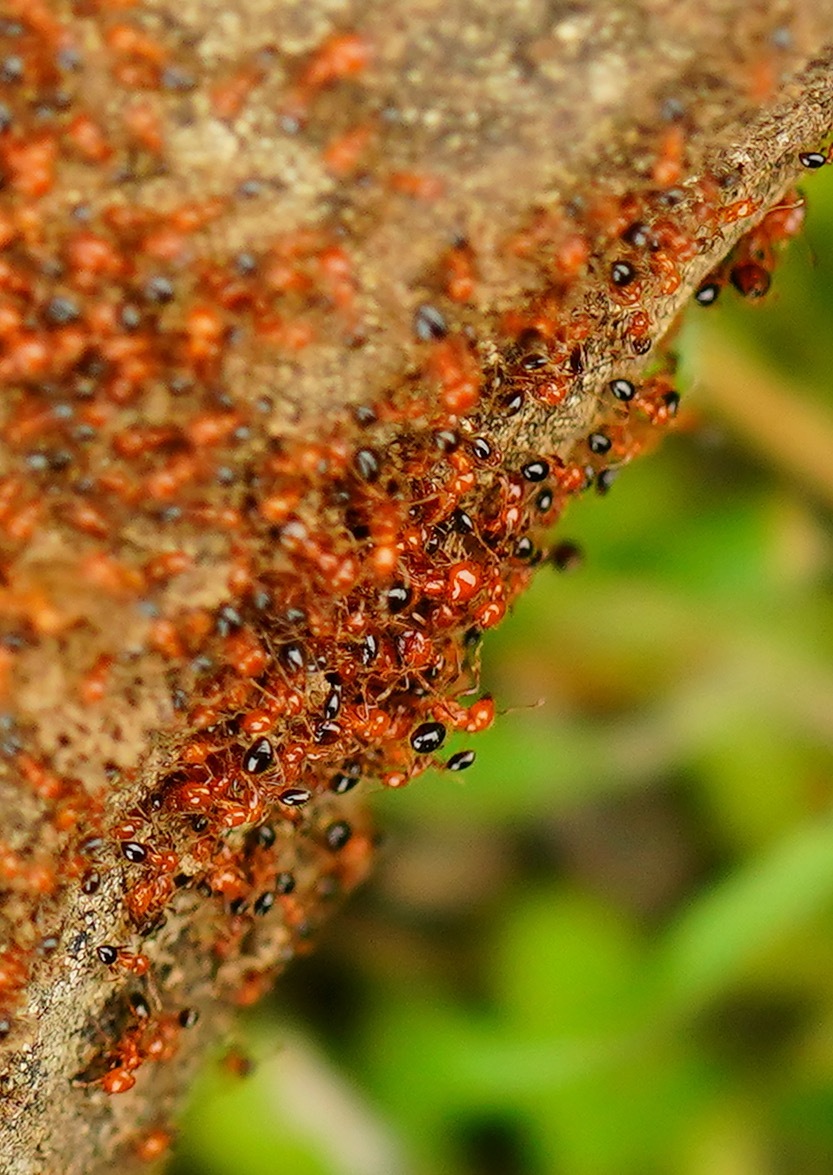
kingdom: Animalia
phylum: Arthropoda
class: Insecta
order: Hymenoptera
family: Formicidae
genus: Solenopsis
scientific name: Solenopsis xyloni
